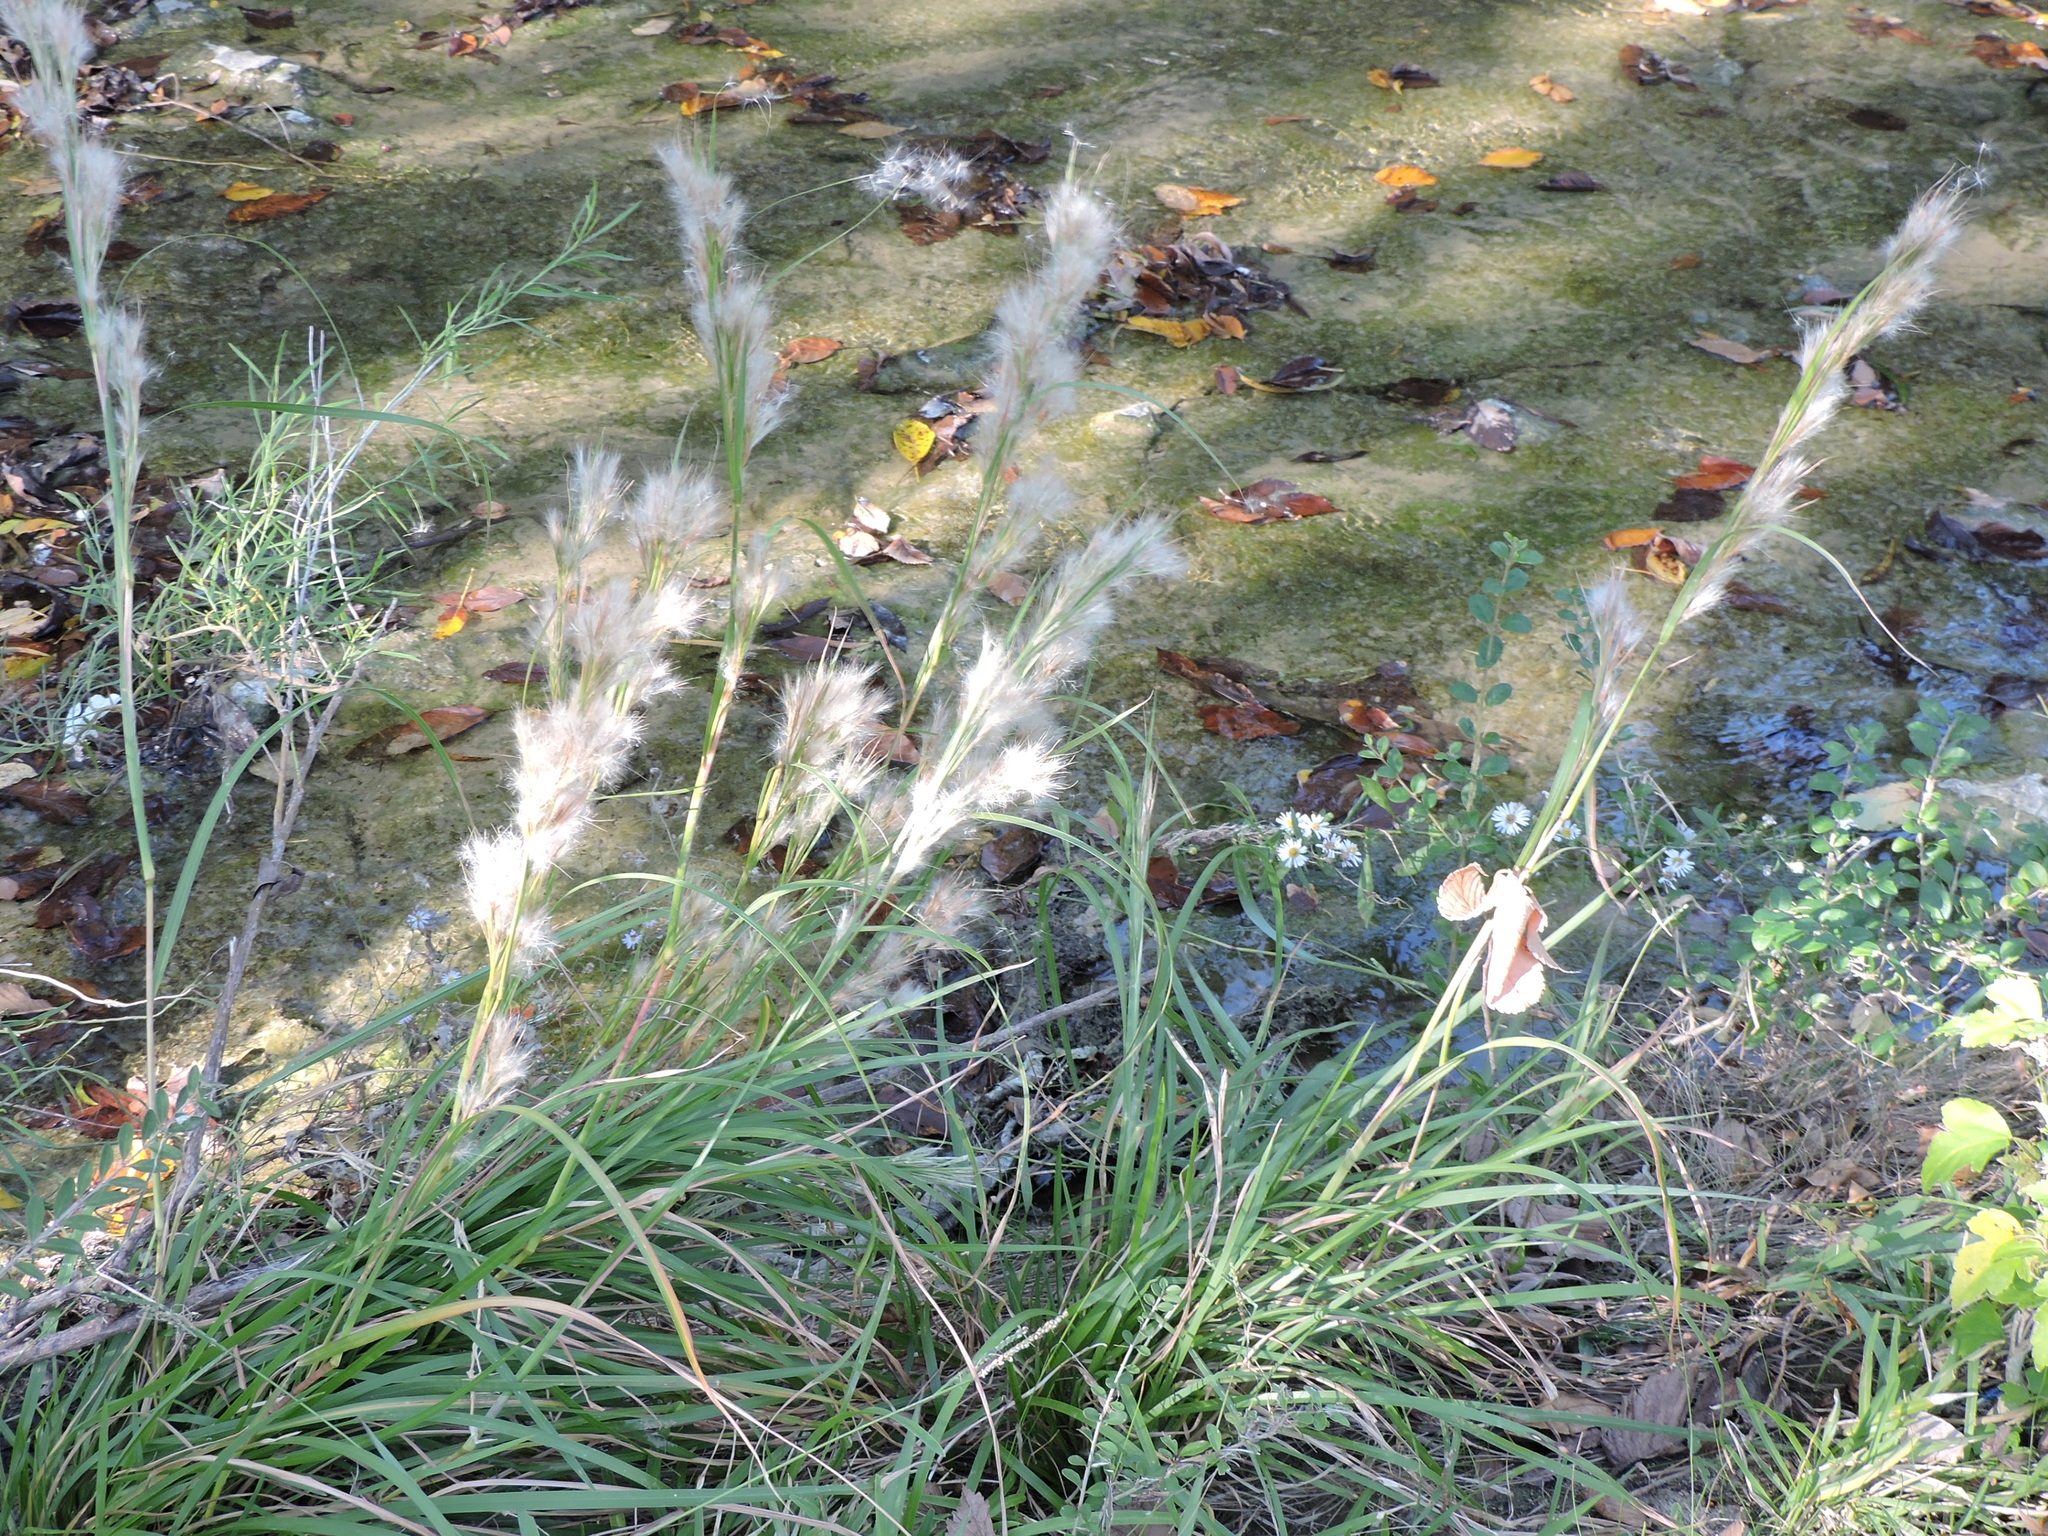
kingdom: Plantae
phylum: Tracheophyta
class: Liliopsida
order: Poales
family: Poaceae
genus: Andropogon
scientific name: Andropogon tenuispatheus
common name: Bushy bluestem
